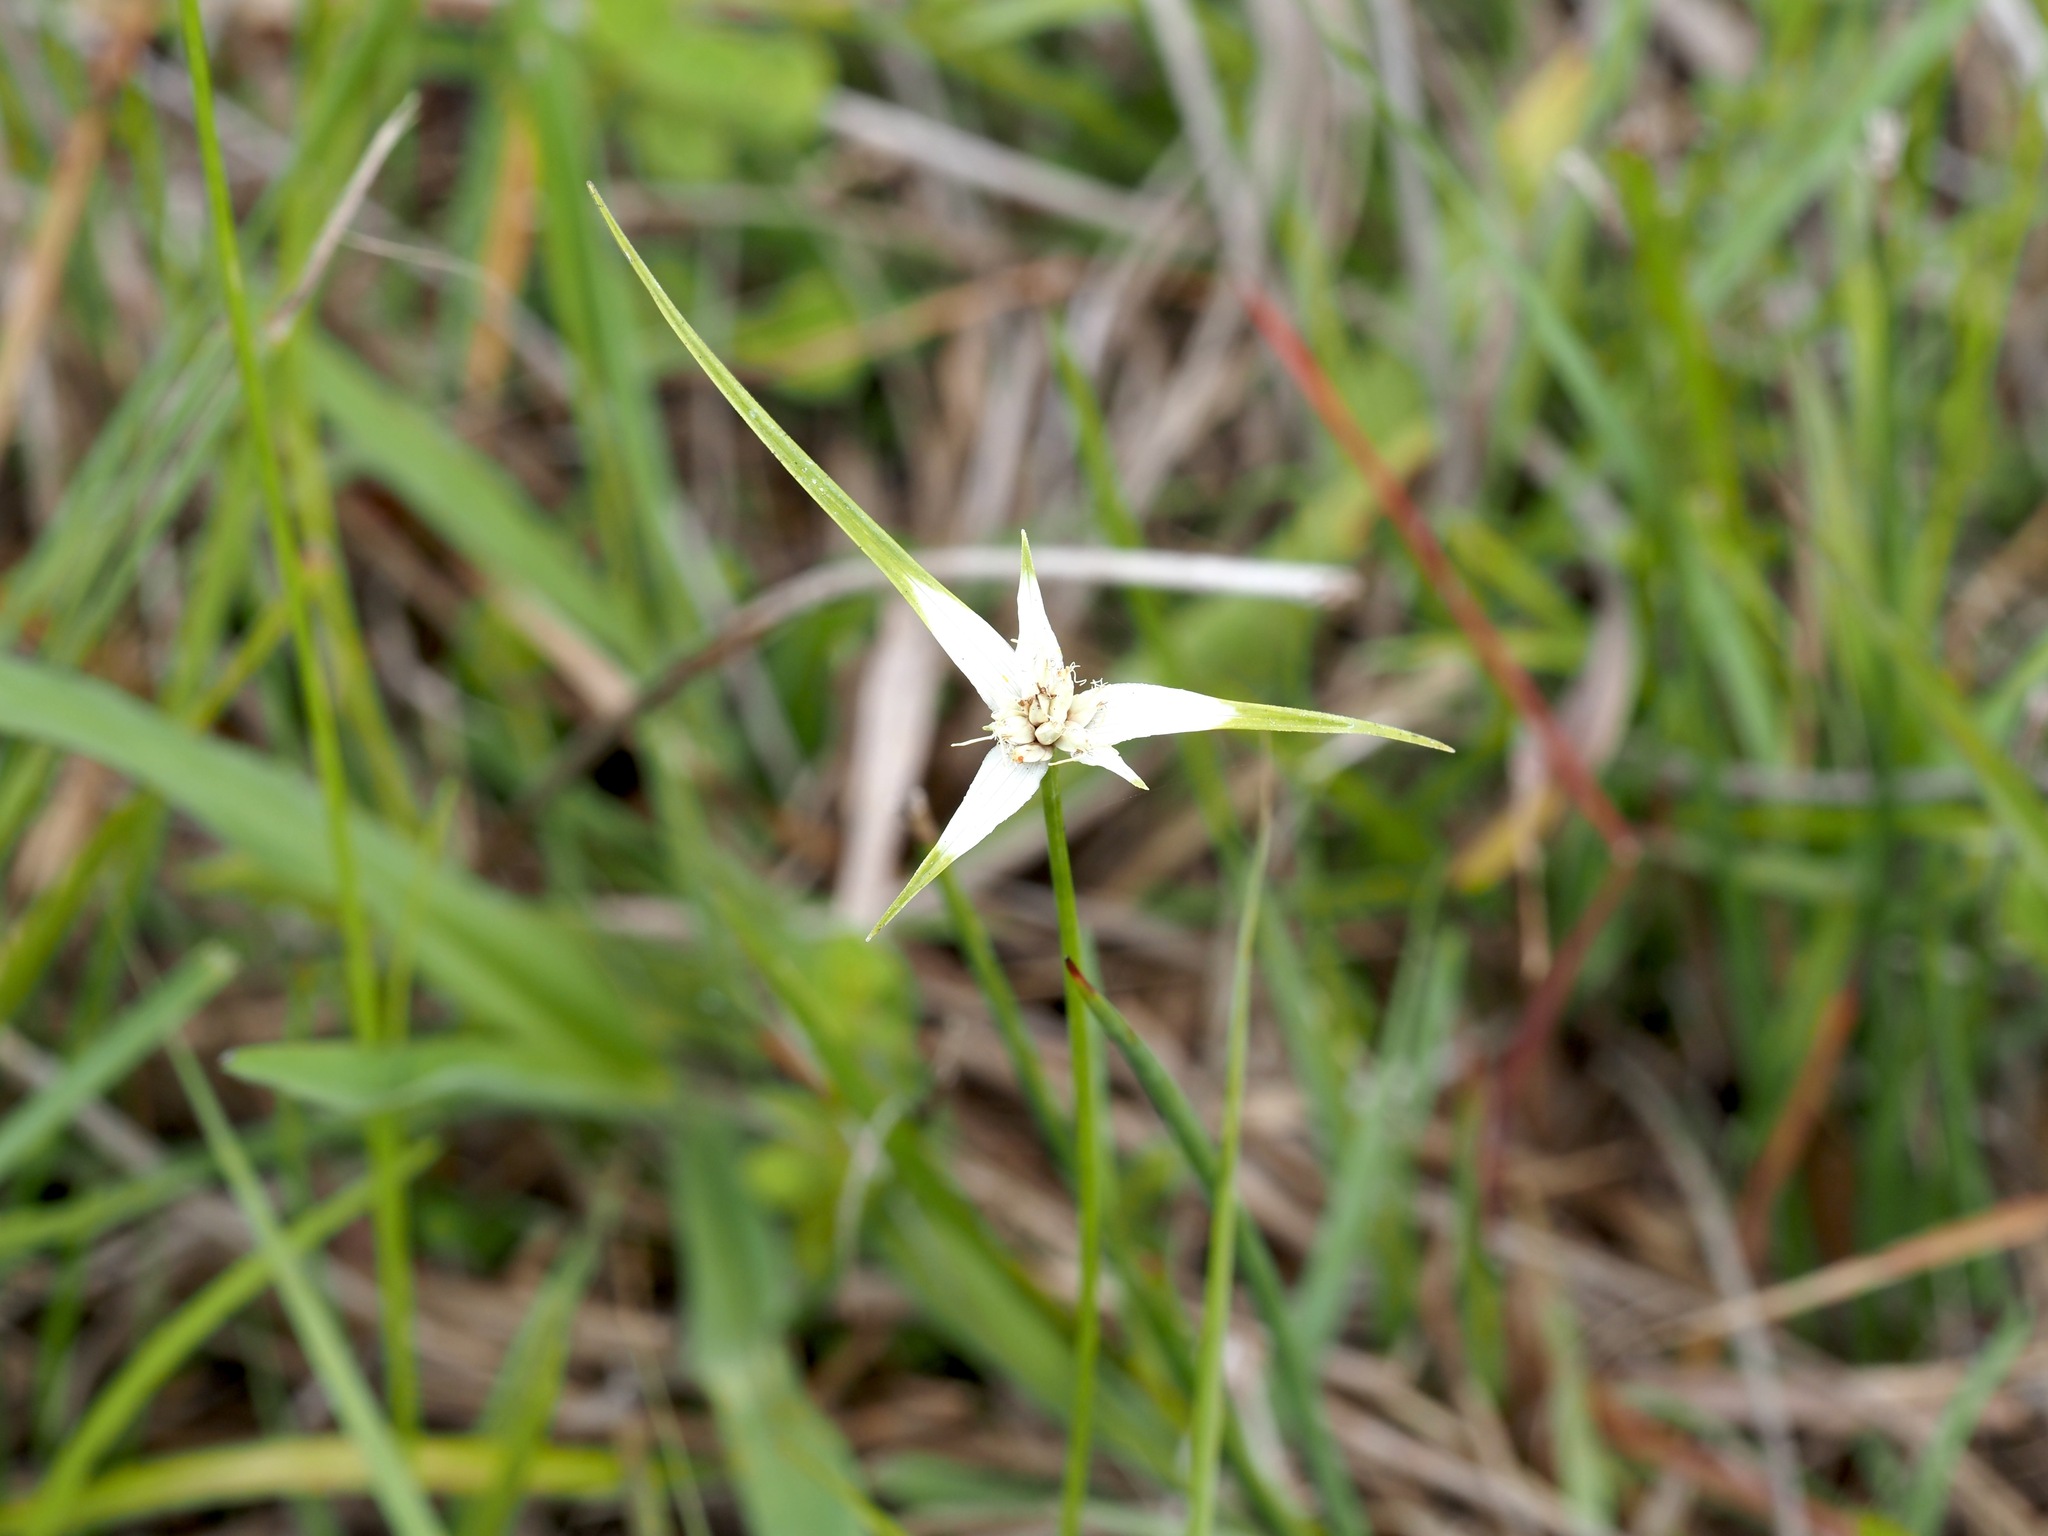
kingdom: Plantae
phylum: Tracheophyta
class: Liliopsida
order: Poales
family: Cyperaceae
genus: Rhynchospora
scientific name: Rhynchospora colorata
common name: Star sedge
